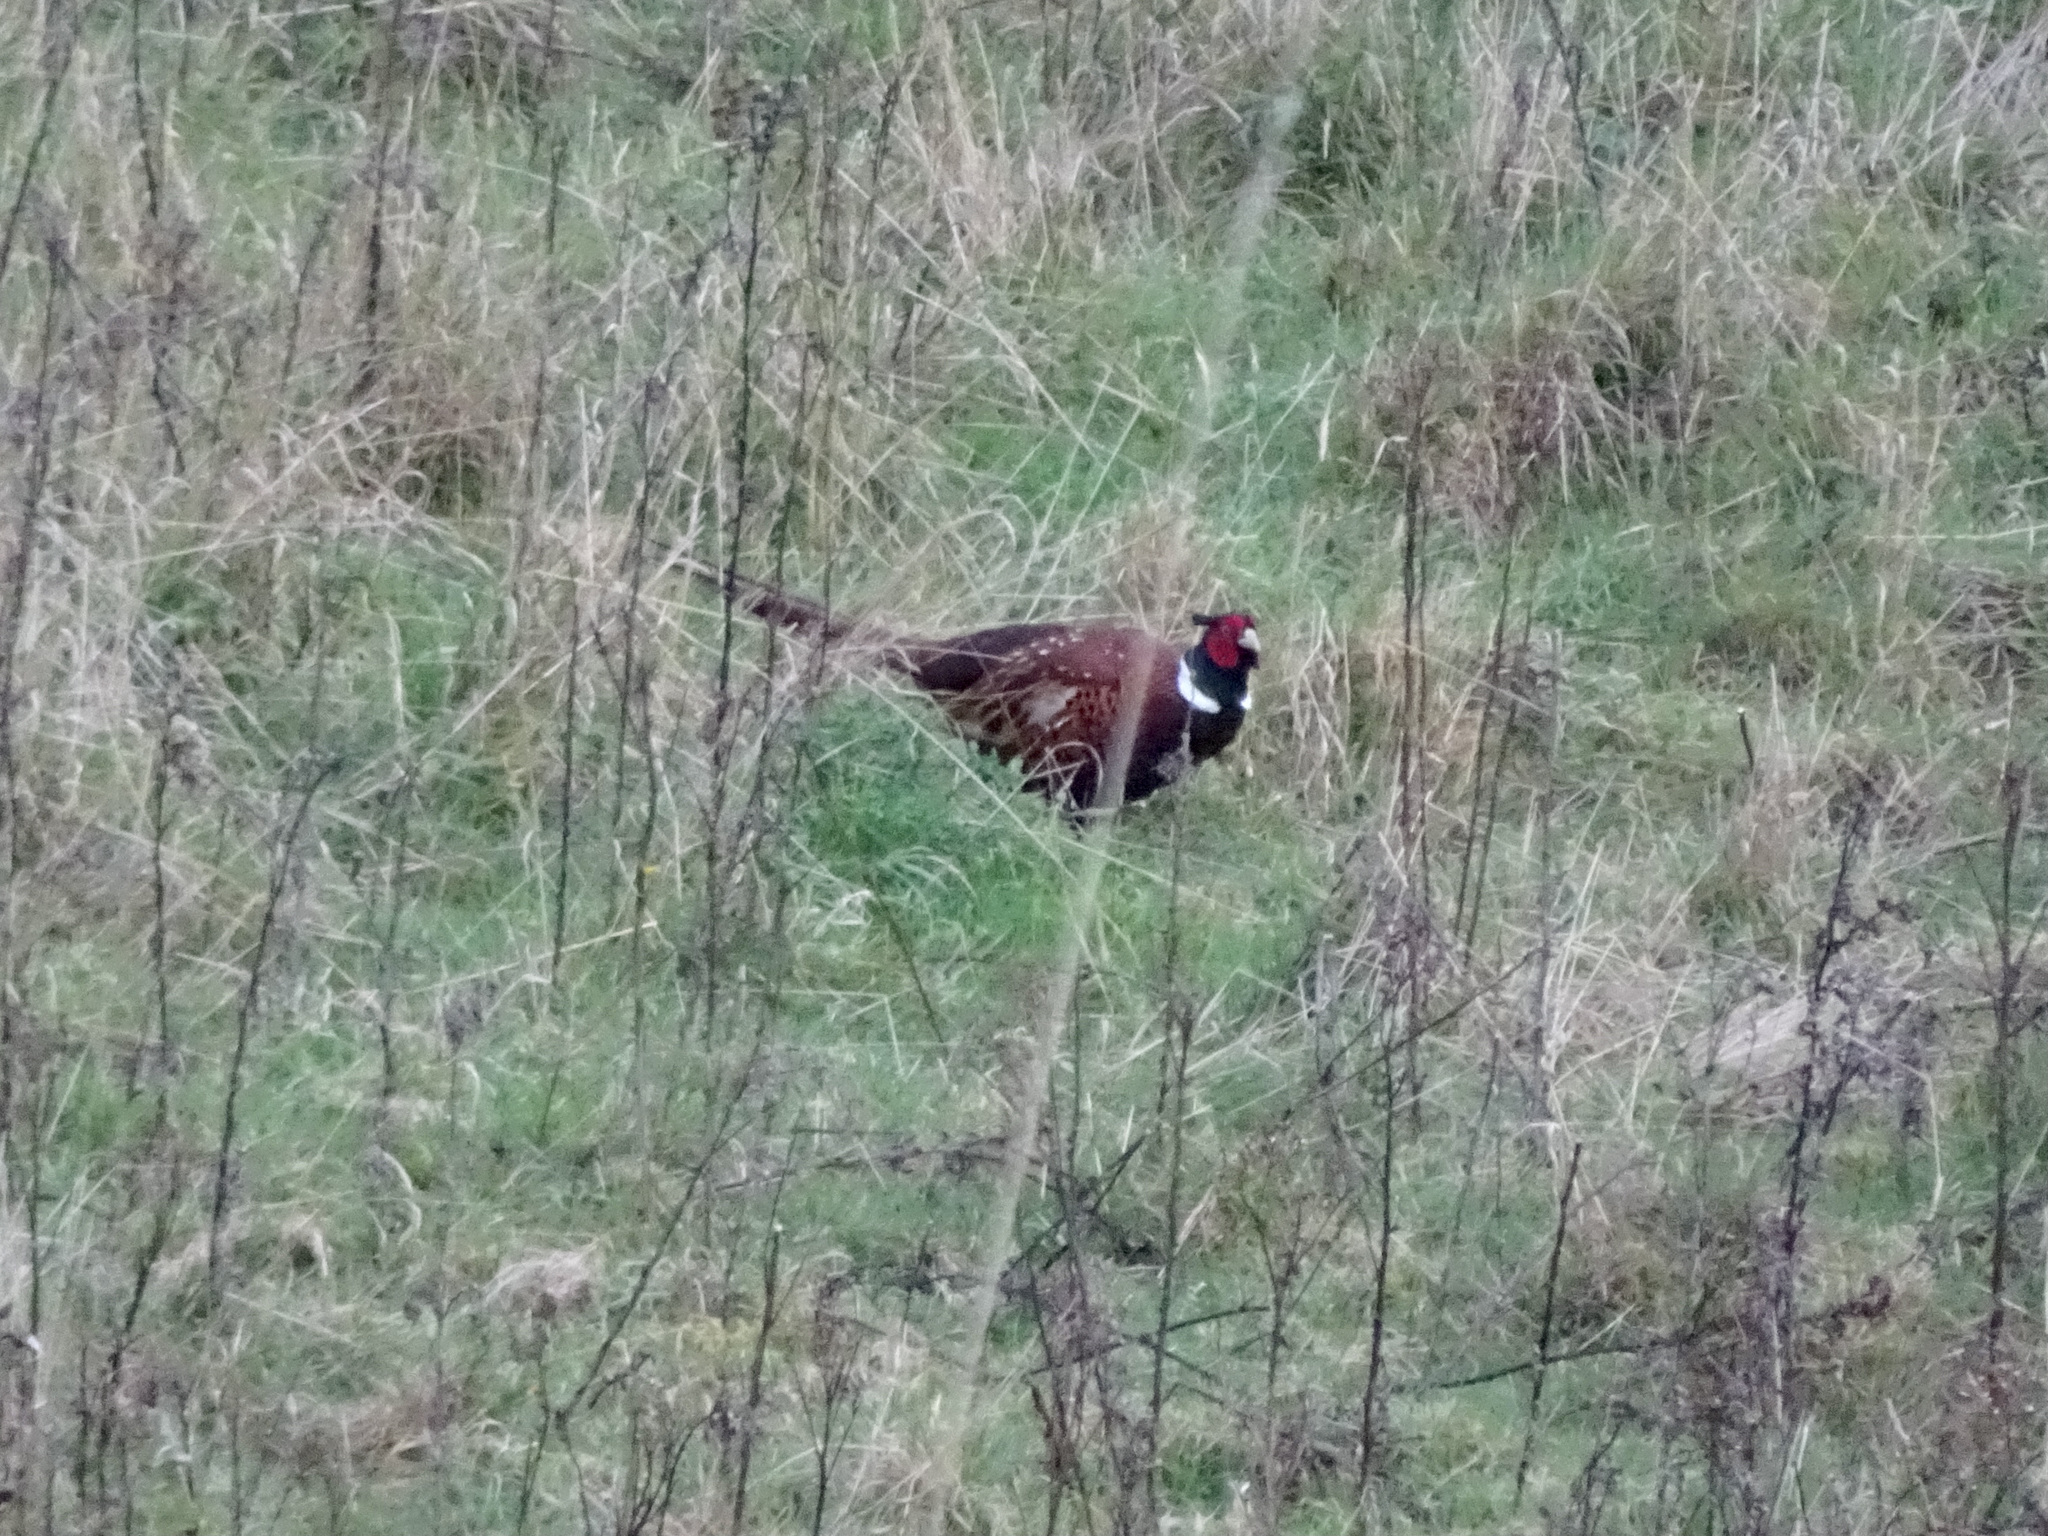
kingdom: Animalia
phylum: Chordata
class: Aves
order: Galliformes
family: Phasianidae
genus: Phasianus
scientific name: Phasianus colchicus
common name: Common pheasant
